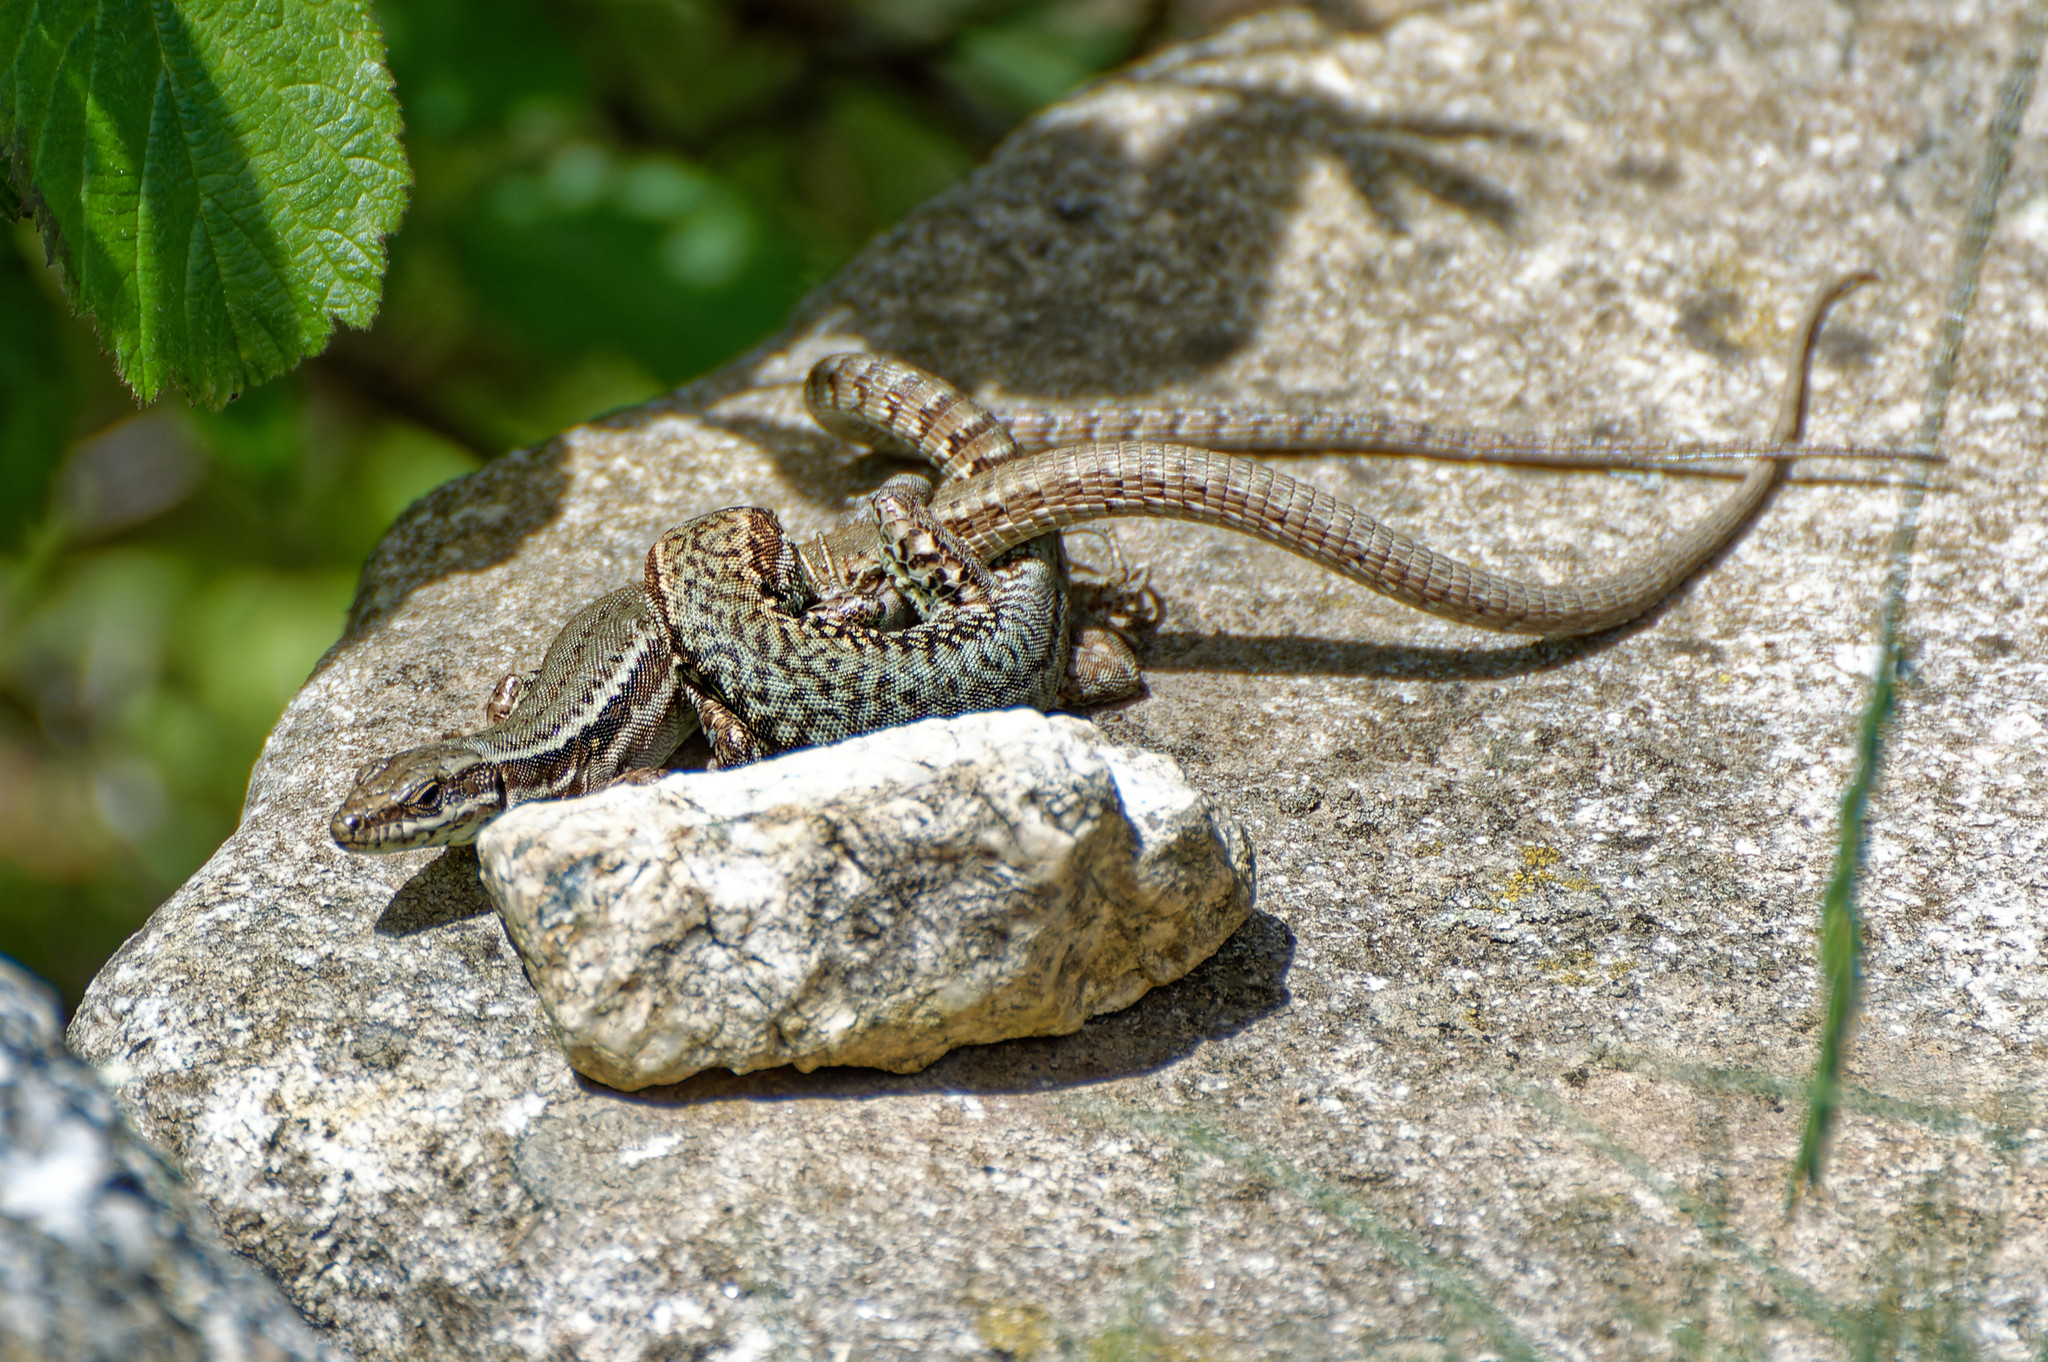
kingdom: Animalia
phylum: Chordata
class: Squamata
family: Lacertidae
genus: Podarcis
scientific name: Podarcis muralis
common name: Common wall lizard
